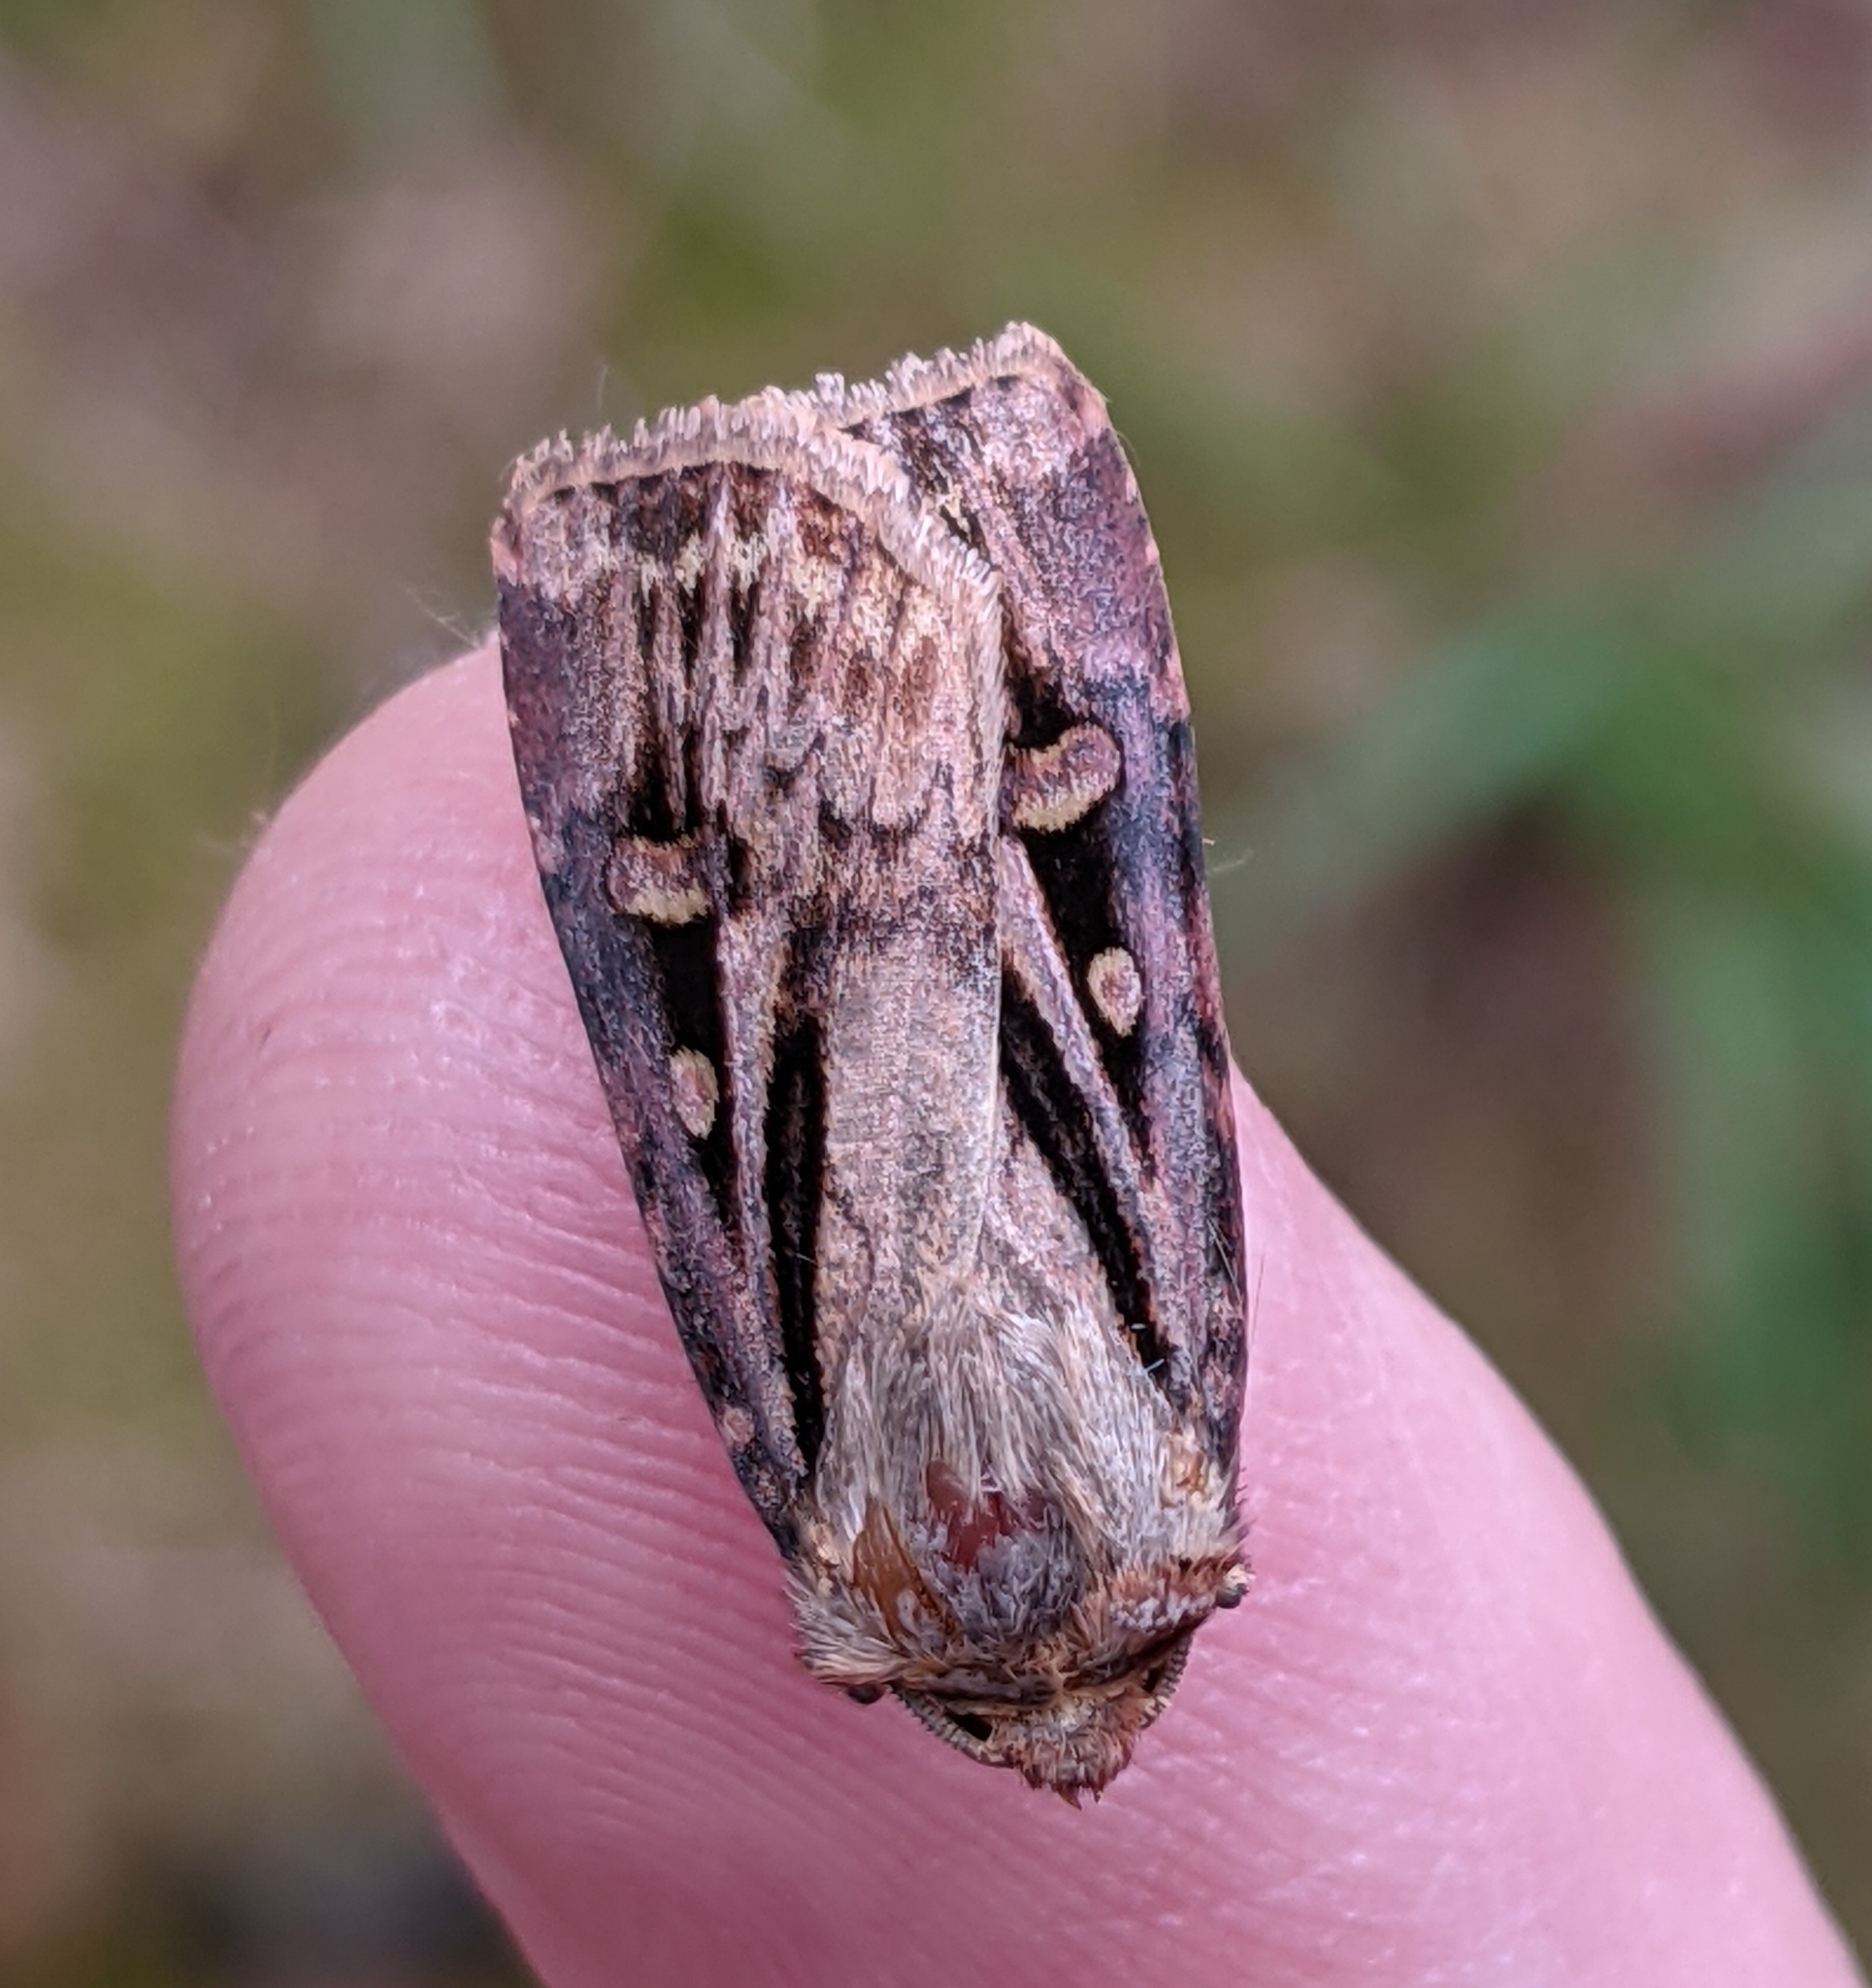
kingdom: Animalia
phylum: Arthropoda
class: Insecta
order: Lepidoptera
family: Noctuidae
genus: Agrotis
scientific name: Agrotis vancouverensis
